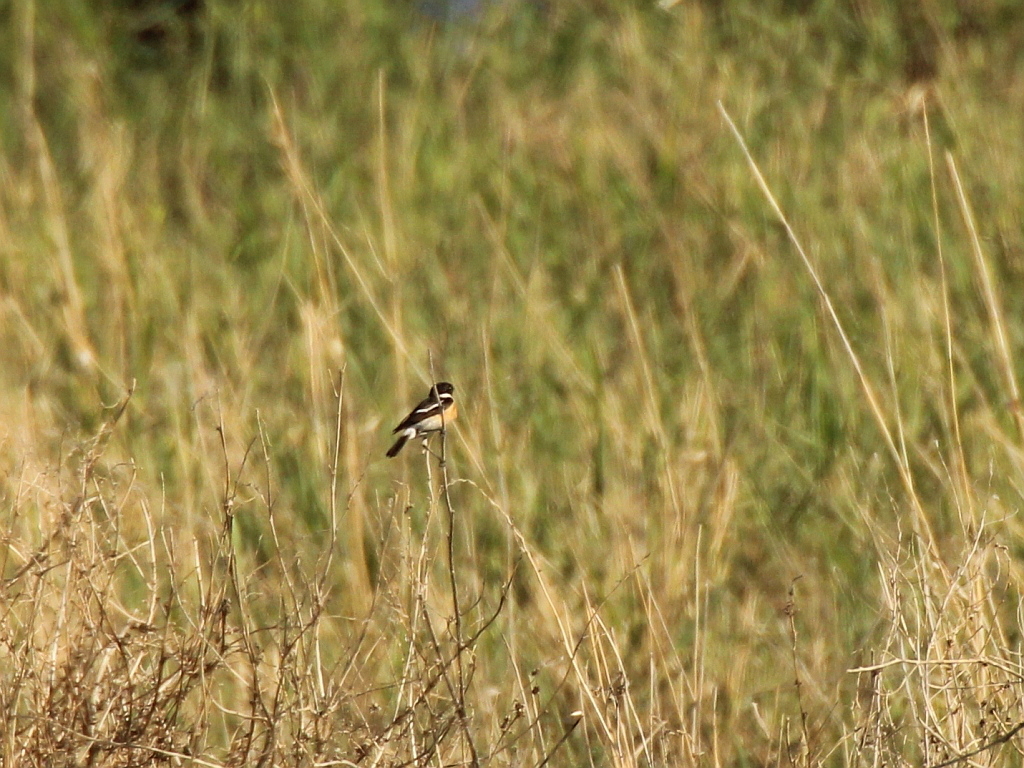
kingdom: Animalia
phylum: Chordata
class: Aves
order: Passeriformes
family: Muscicapidae
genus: Saxicola
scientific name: Saxicola maurus
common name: Siberian stonechat
